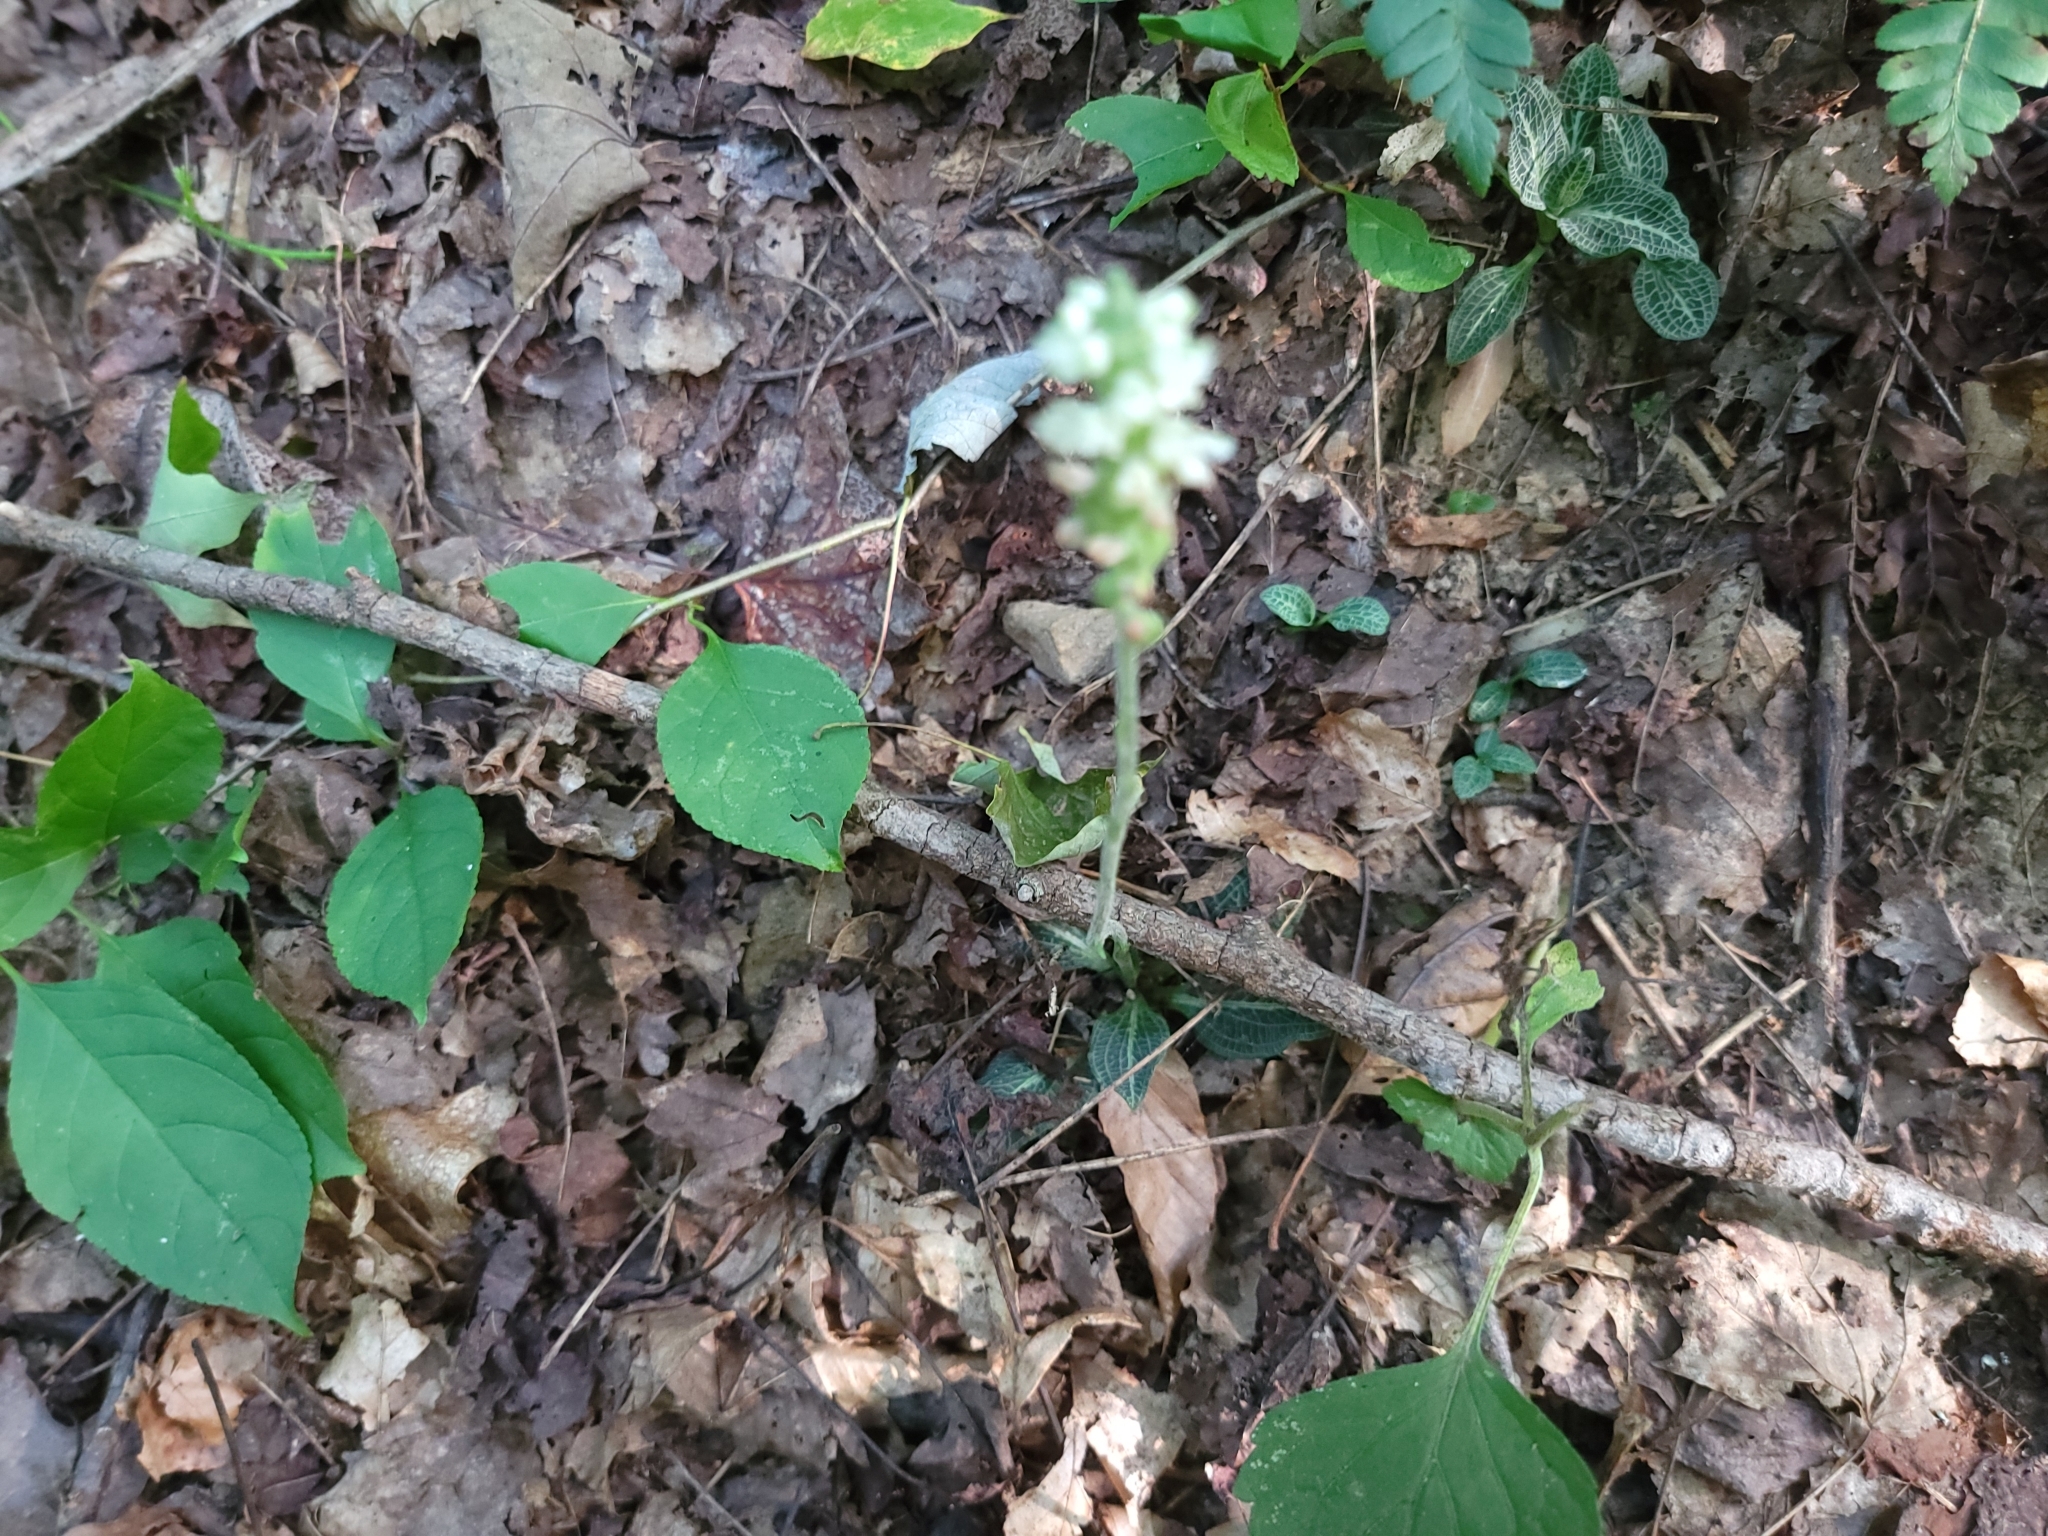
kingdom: Plantae
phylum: Tracheophyta
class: Liliopsida
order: Asparagales
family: Orchidaceae
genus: Goodyera
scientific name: Goodyera pubescens
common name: Downy rattlesnake-plantain
